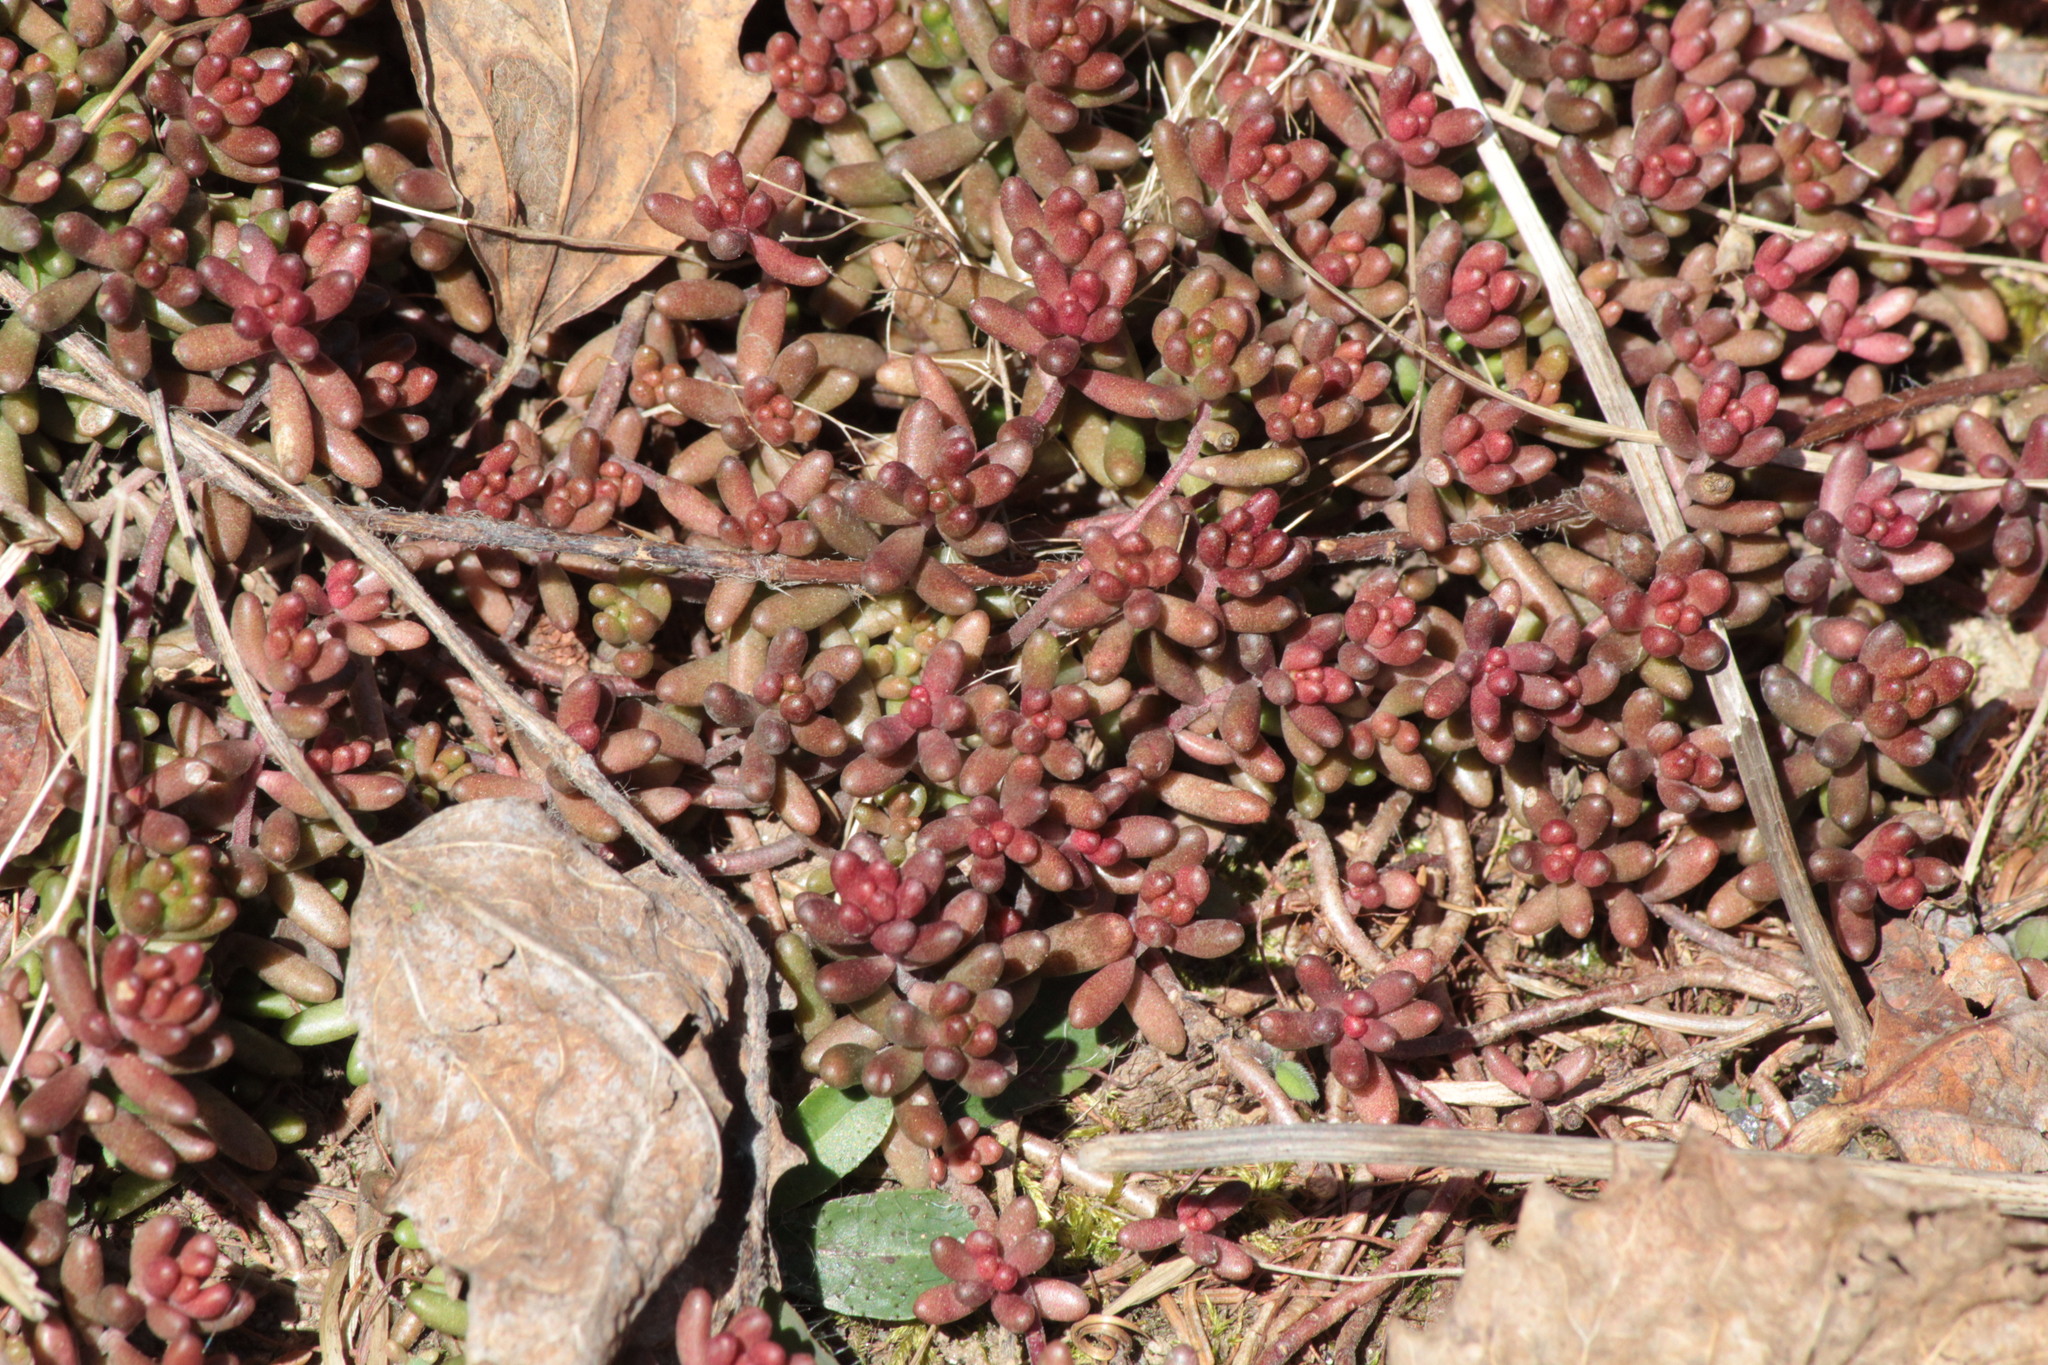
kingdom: Plantae
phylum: Tracheophyta
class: Magnoliopsida
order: Saxifragales
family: Crassulaceae
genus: Sedum
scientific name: Sedum album
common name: White stonecrop
